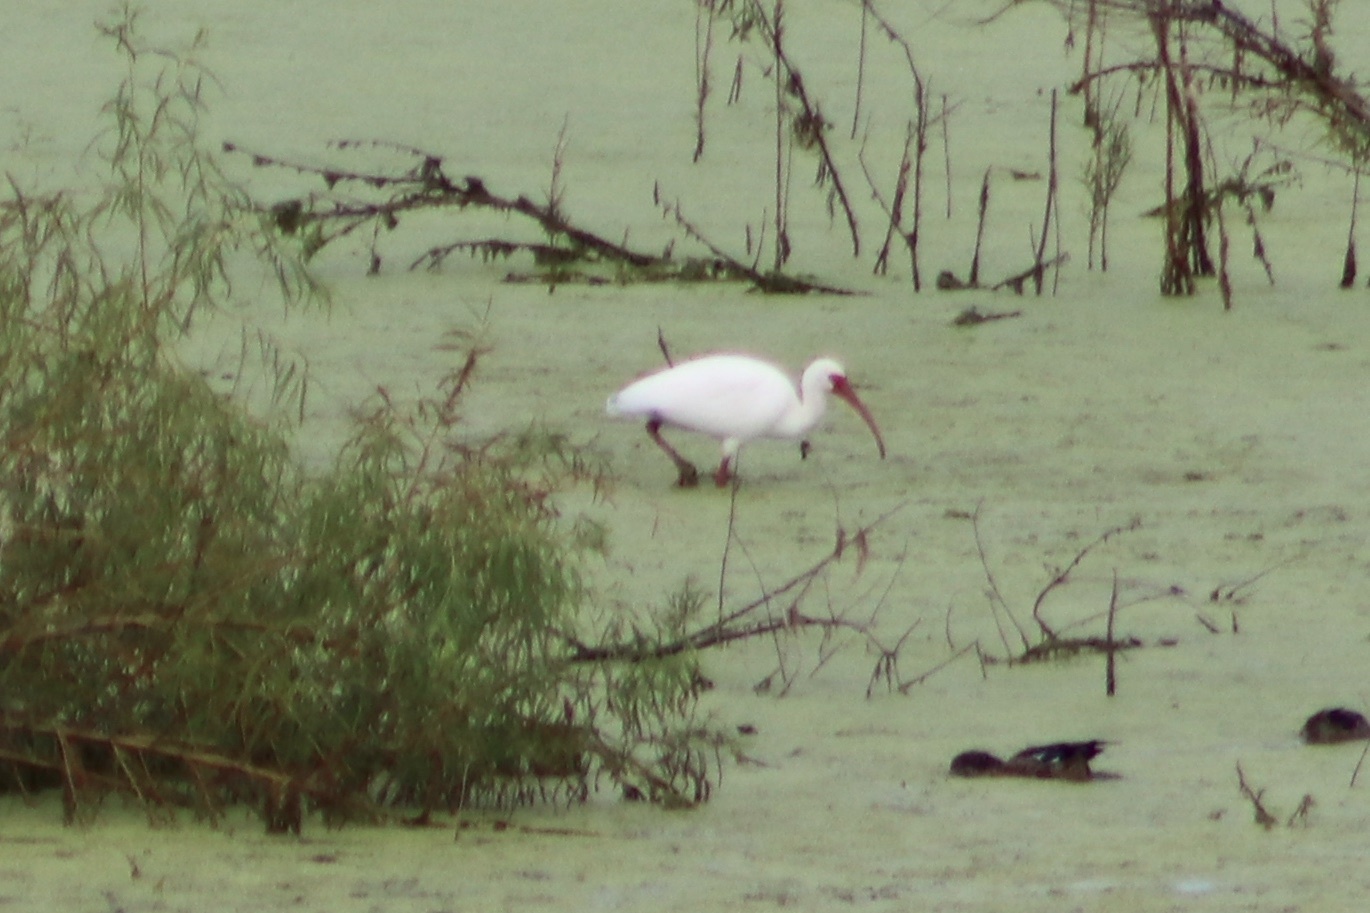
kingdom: Animalia
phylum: Chordata
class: Aves
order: Pelecaniformes
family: Threskiornithidae
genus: Eudocimus
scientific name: Eudocimus albus
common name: White ibis
